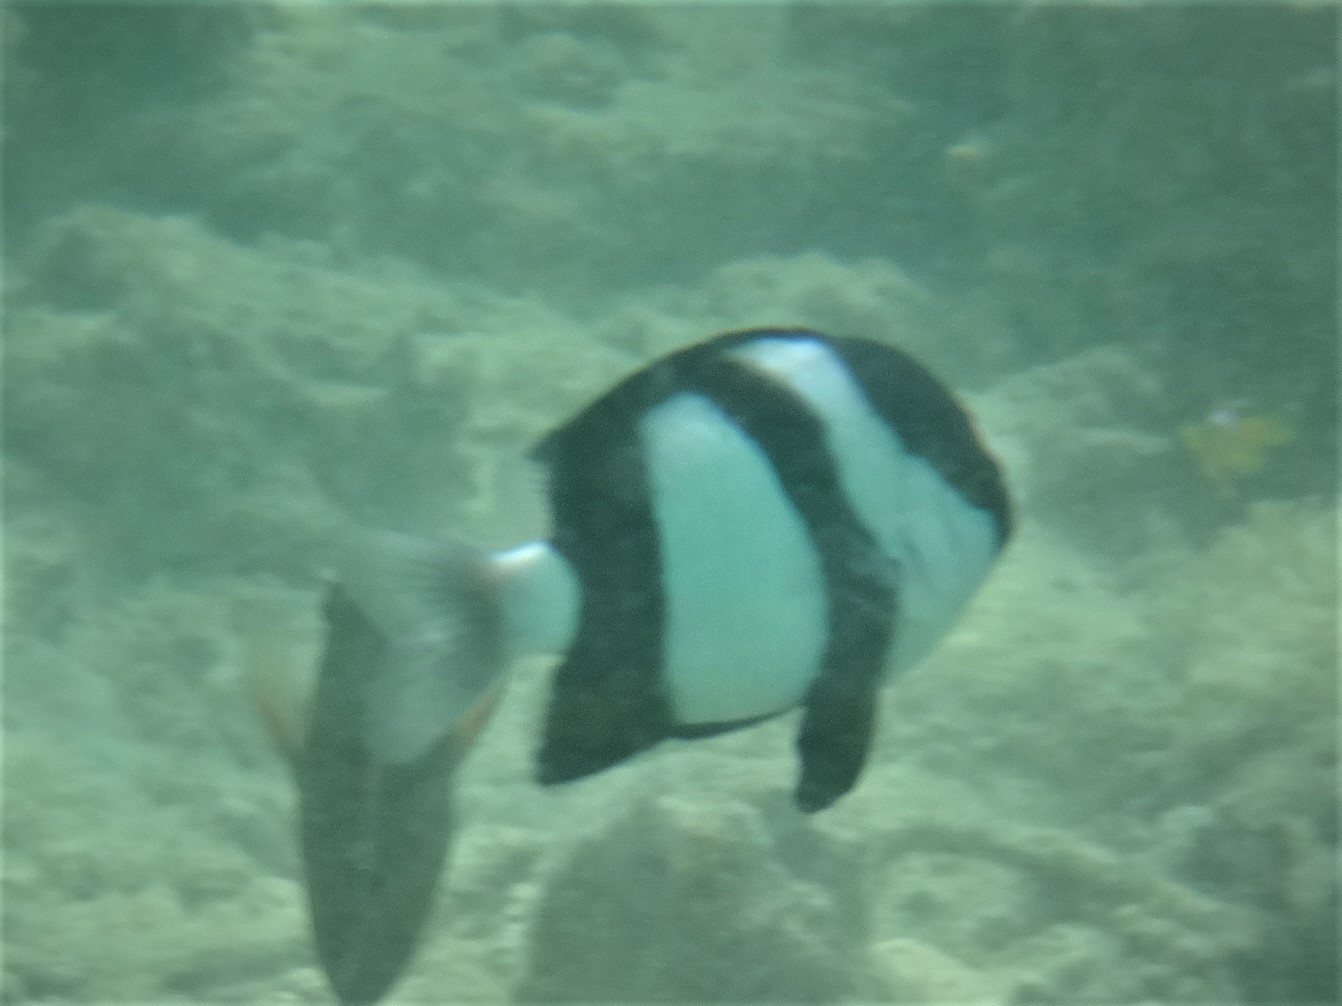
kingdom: Animalia
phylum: Chordata
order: Perciformes
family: Pomacentridae
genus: Dascyllus
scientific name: Dascyllus abudafur
